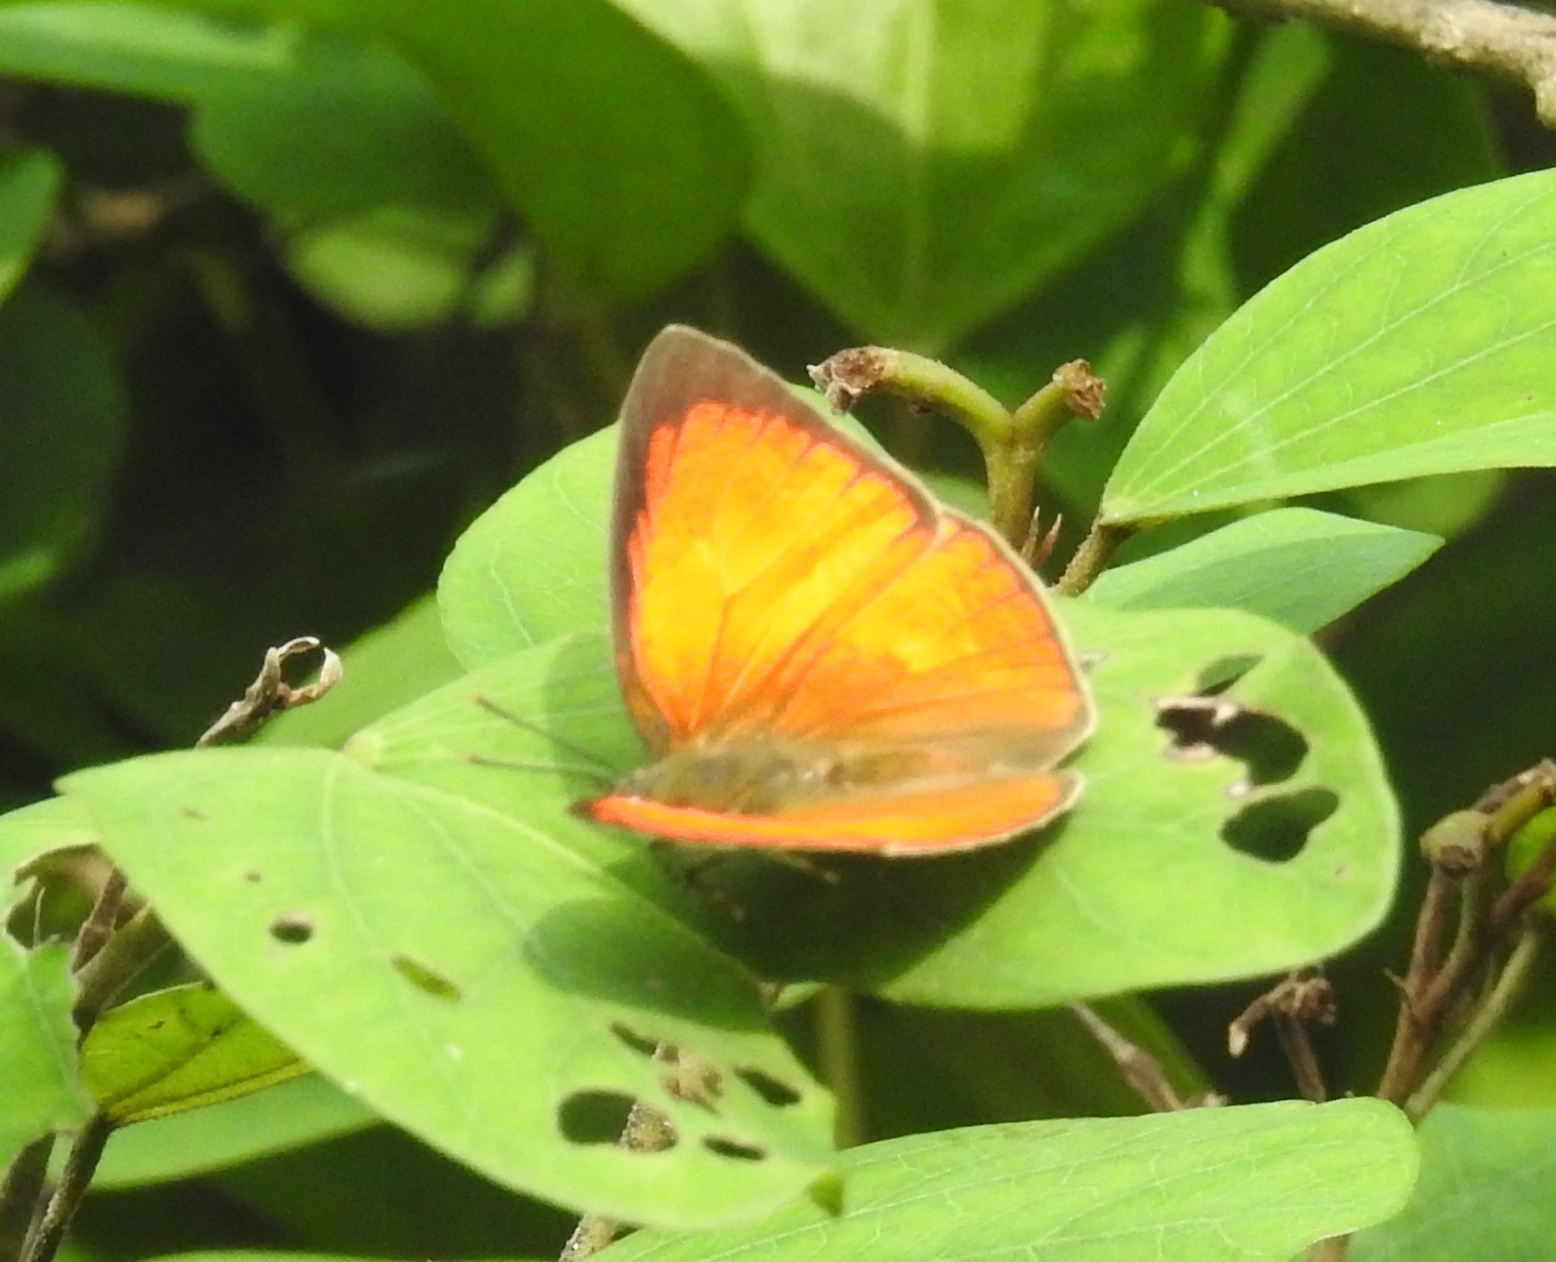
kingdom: Animalia
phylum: Arthropoda
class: Insecta
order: Lepidoptera
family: Lycaenidae
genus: Curetis
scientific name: Curetis thetis
